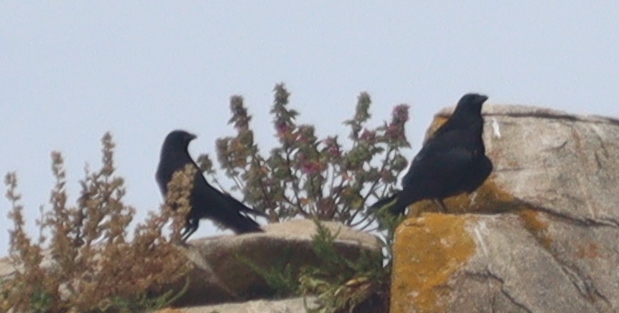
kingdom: Animalia
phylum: Chordata
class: Aves
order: Passeriformes
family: Corvidae
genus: Corvus
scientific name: Corvus corone
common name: Carrion crow
